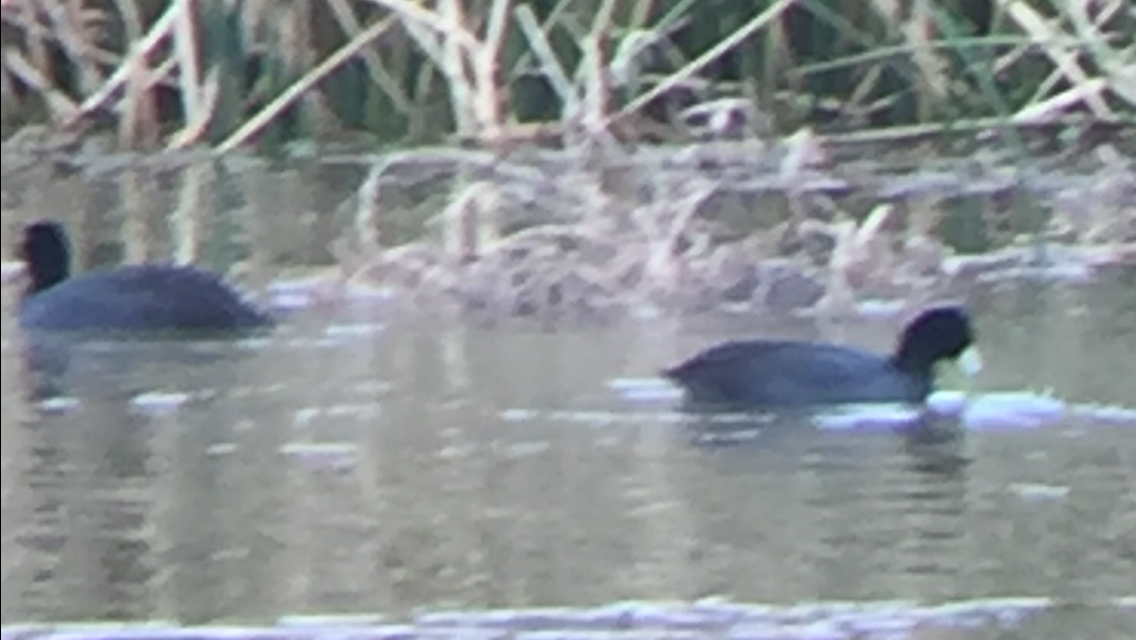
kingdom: Animalia
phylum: Chordata
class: Aves
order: Gruiformes
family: Rallidae
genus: Fulica
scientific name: Fulica americana
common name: American coot
